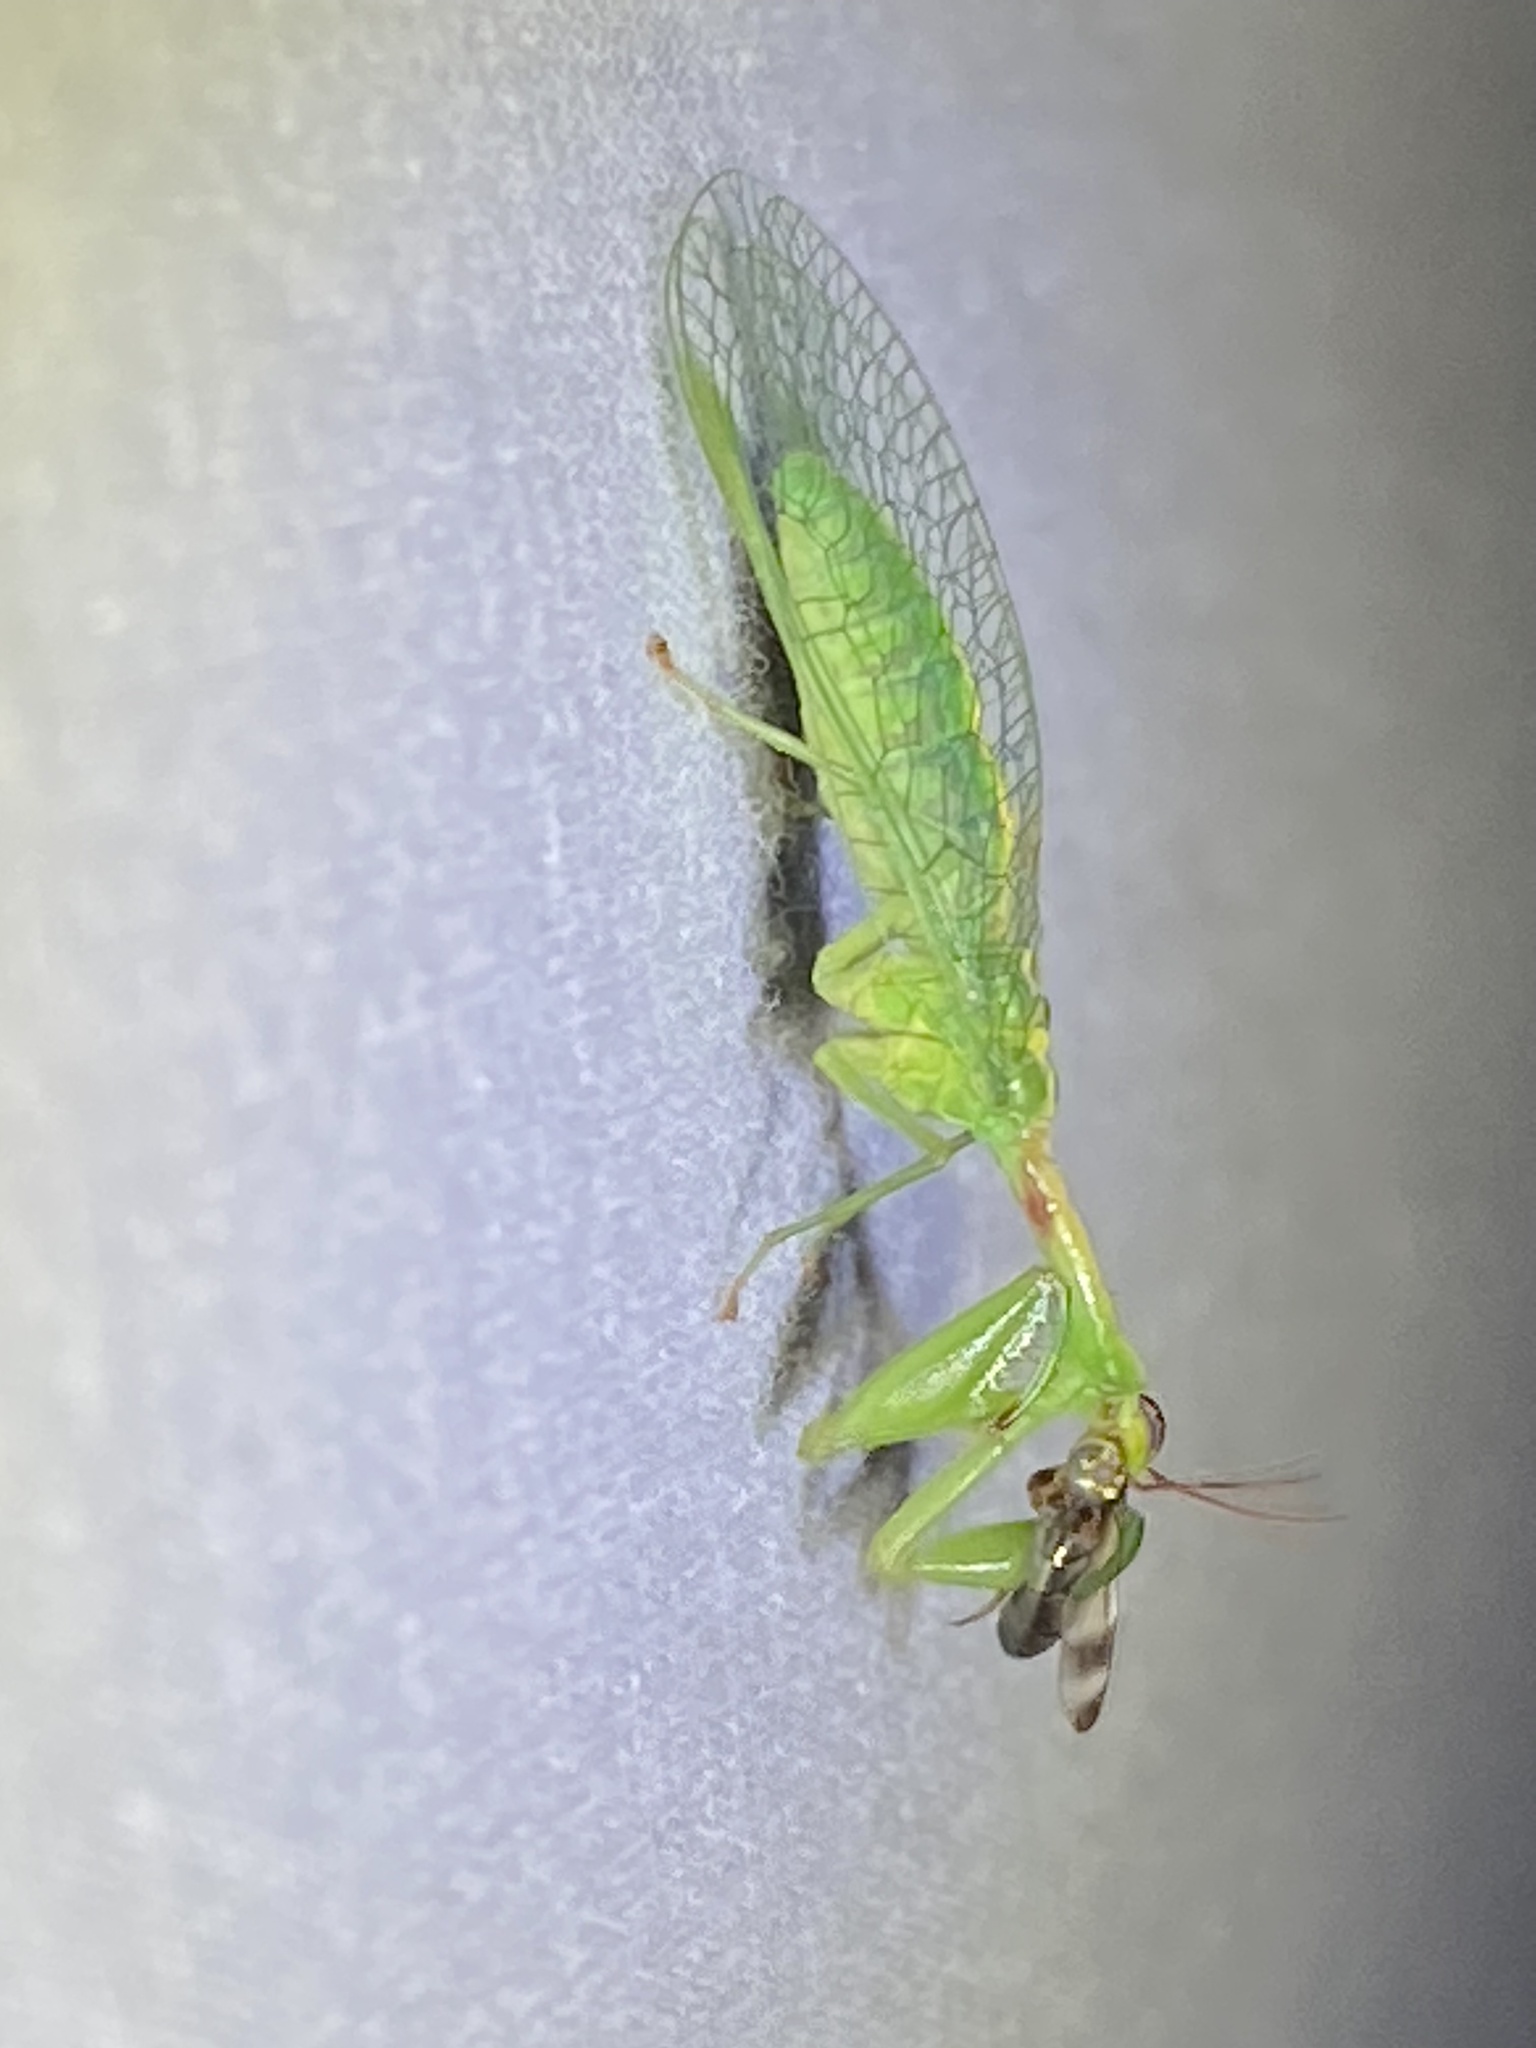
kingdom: Animalia
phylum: Arthropoda
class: Insecta
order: Neuroptera
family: Mantispidae
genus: Zeugomantispa
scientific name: Zeugomantispa minuta
